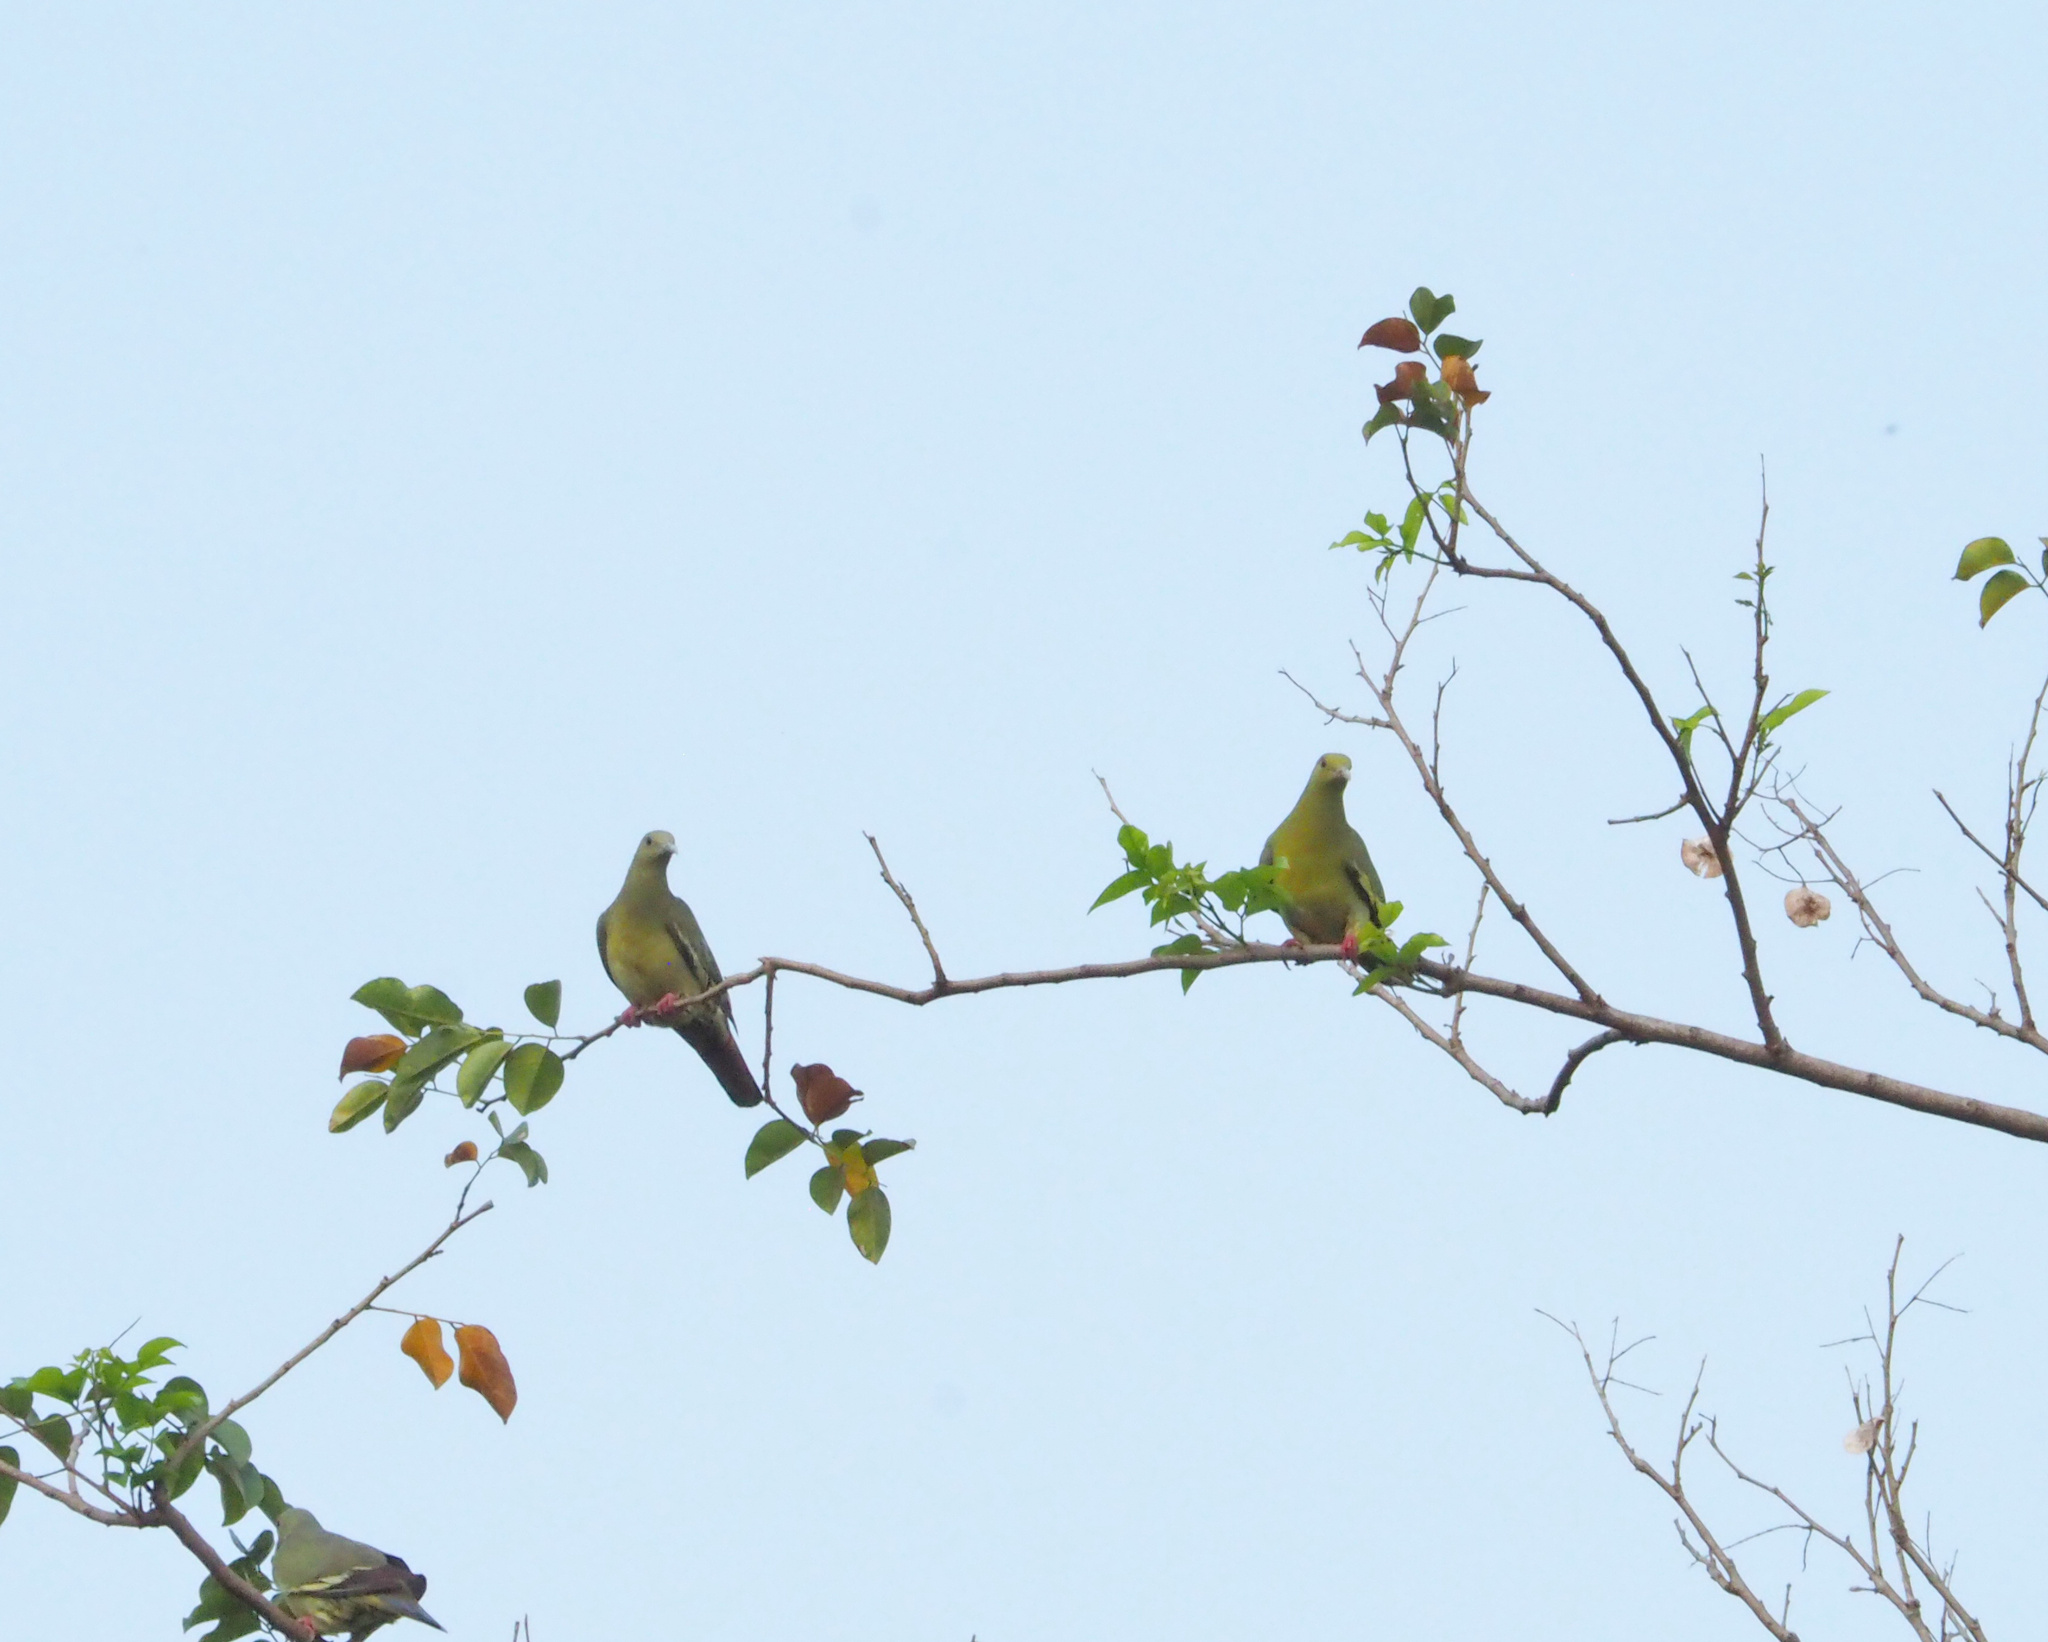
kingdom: Animalia
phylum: Chordata
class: Aves
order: Columbiformes
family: Columbidae
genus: Treron
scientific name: Treron vernans
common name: Pink-necked green pigeon
